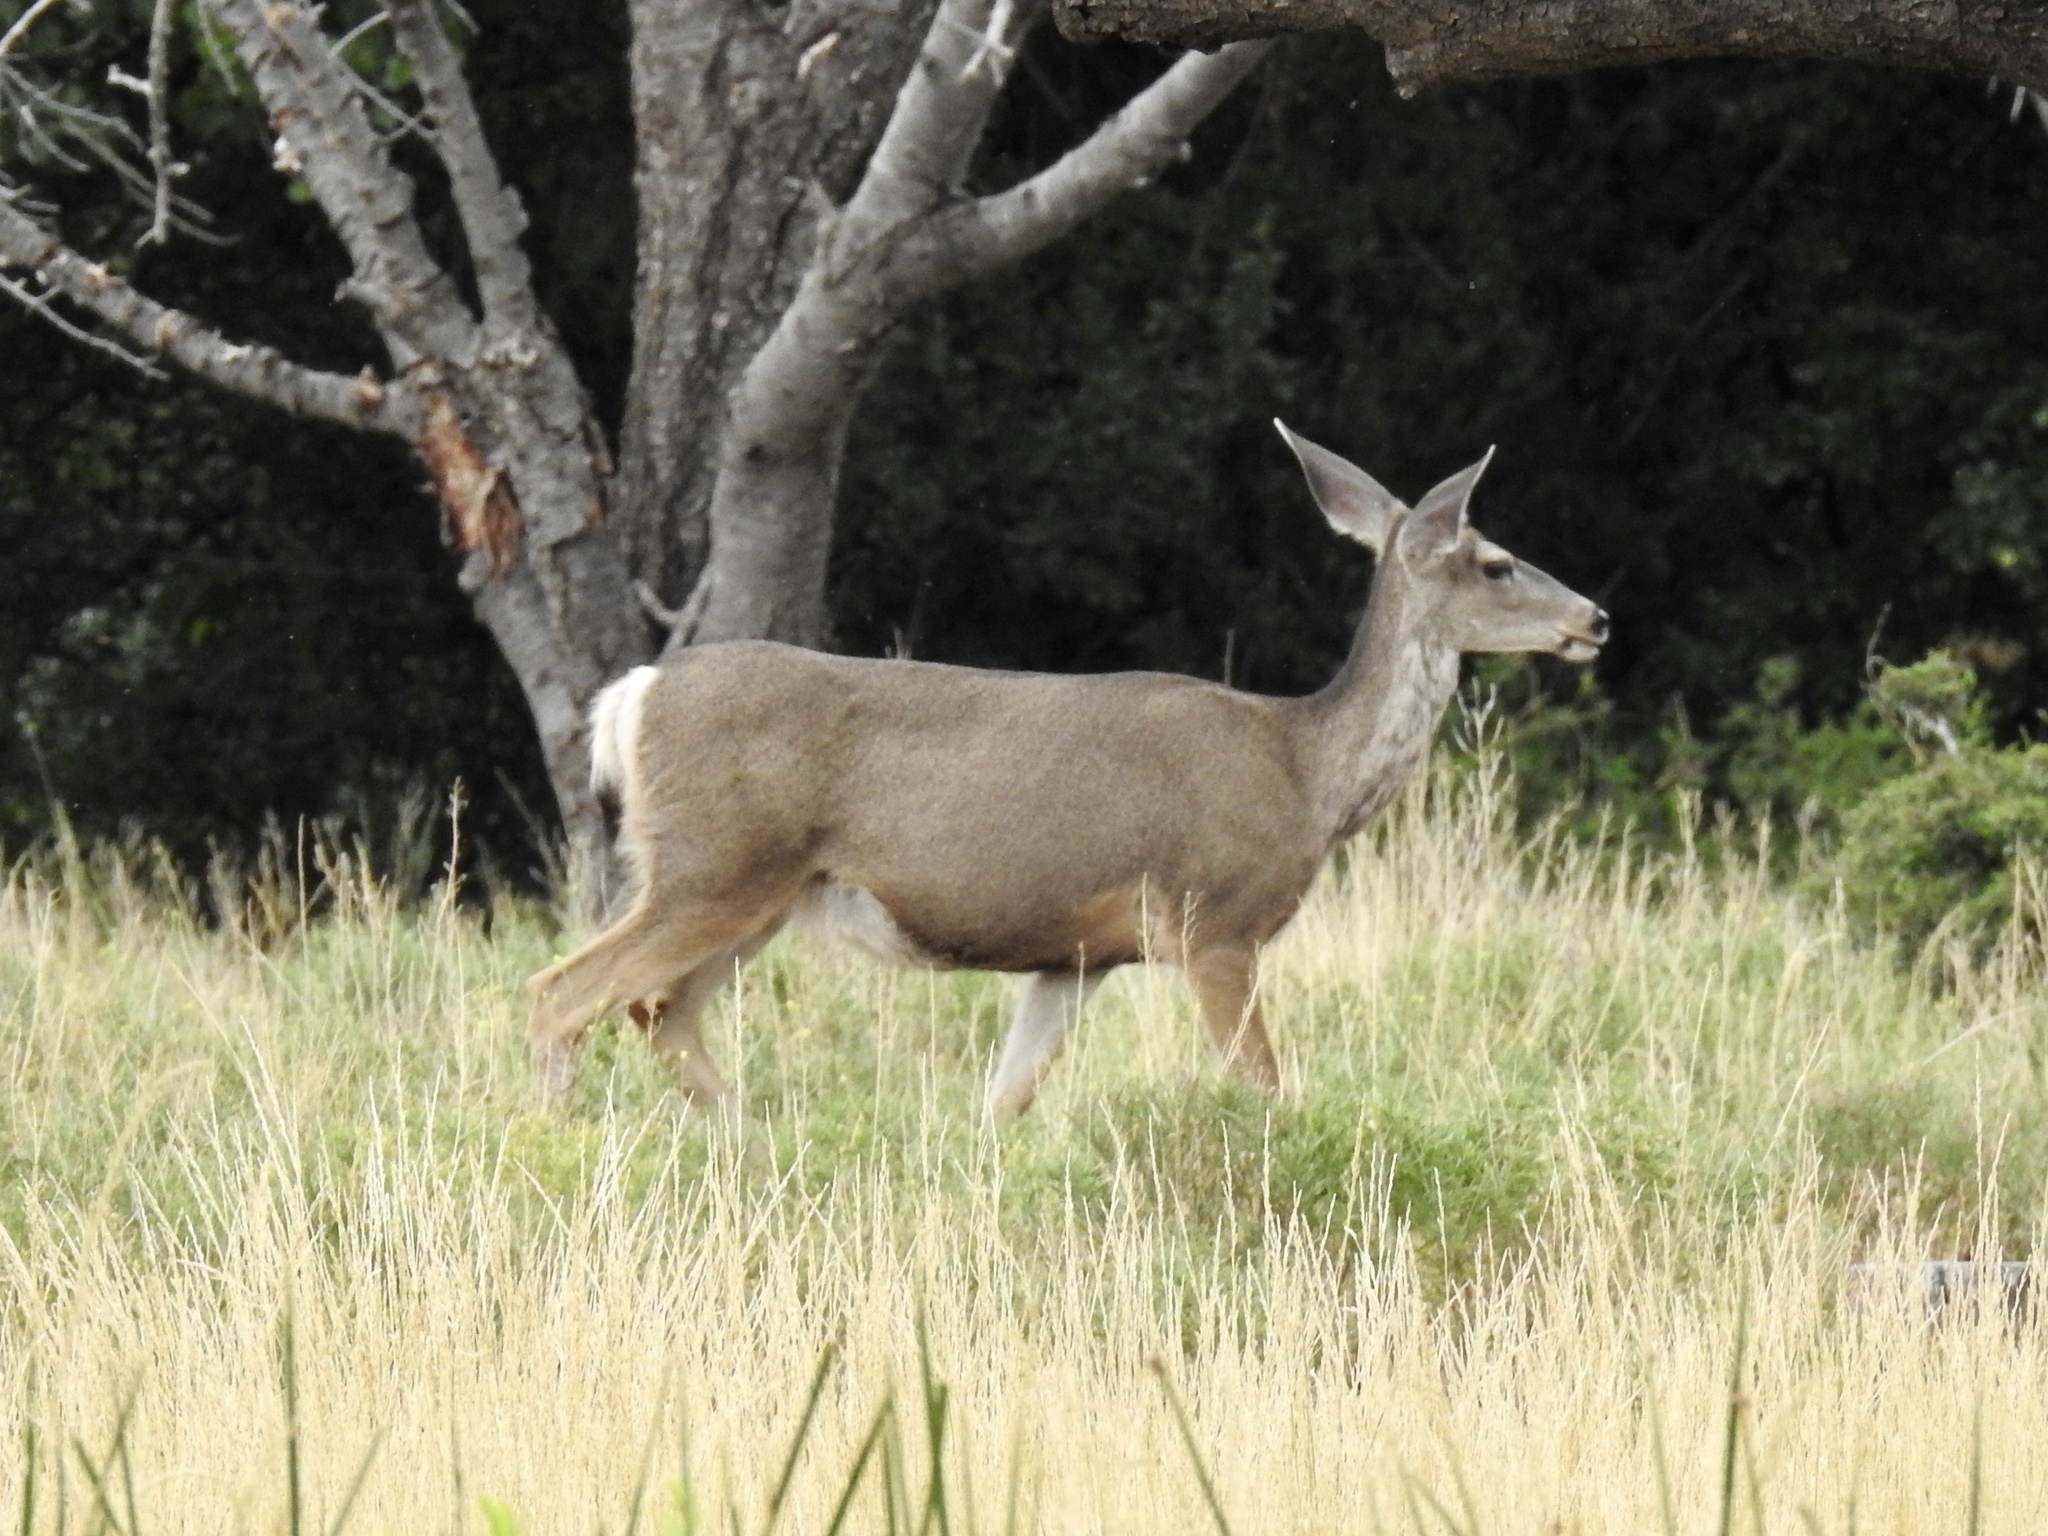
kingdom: Animalia
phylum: Chordata
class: Mammalia
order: Artiodactyla
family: Cervidae
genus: Odocoileus
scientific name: Odocoileus hemionus
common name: Mule deer
